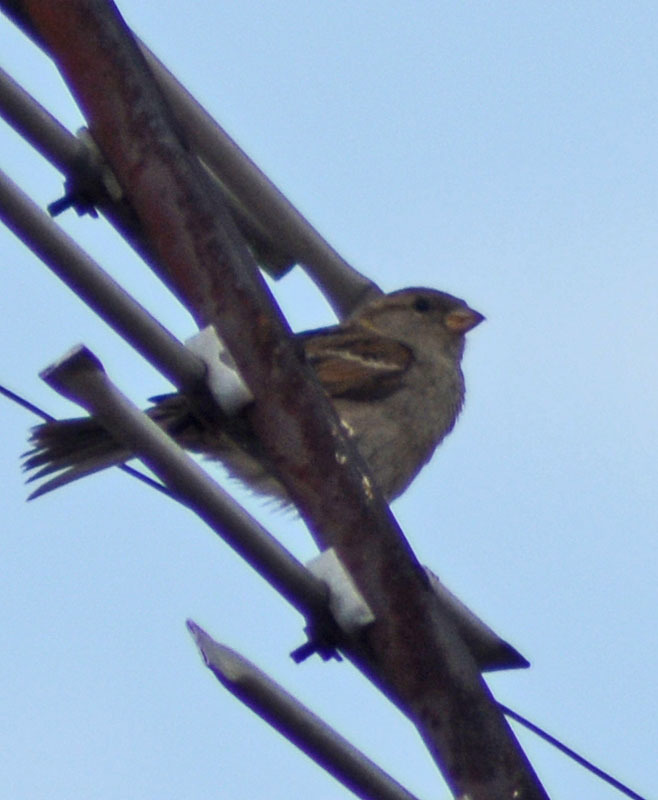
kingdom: Animalia
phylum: Chordata
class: Aves
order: Passeriformes
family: Passeridae
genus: Passer
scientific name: Passer domesticus
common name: House sparrow
